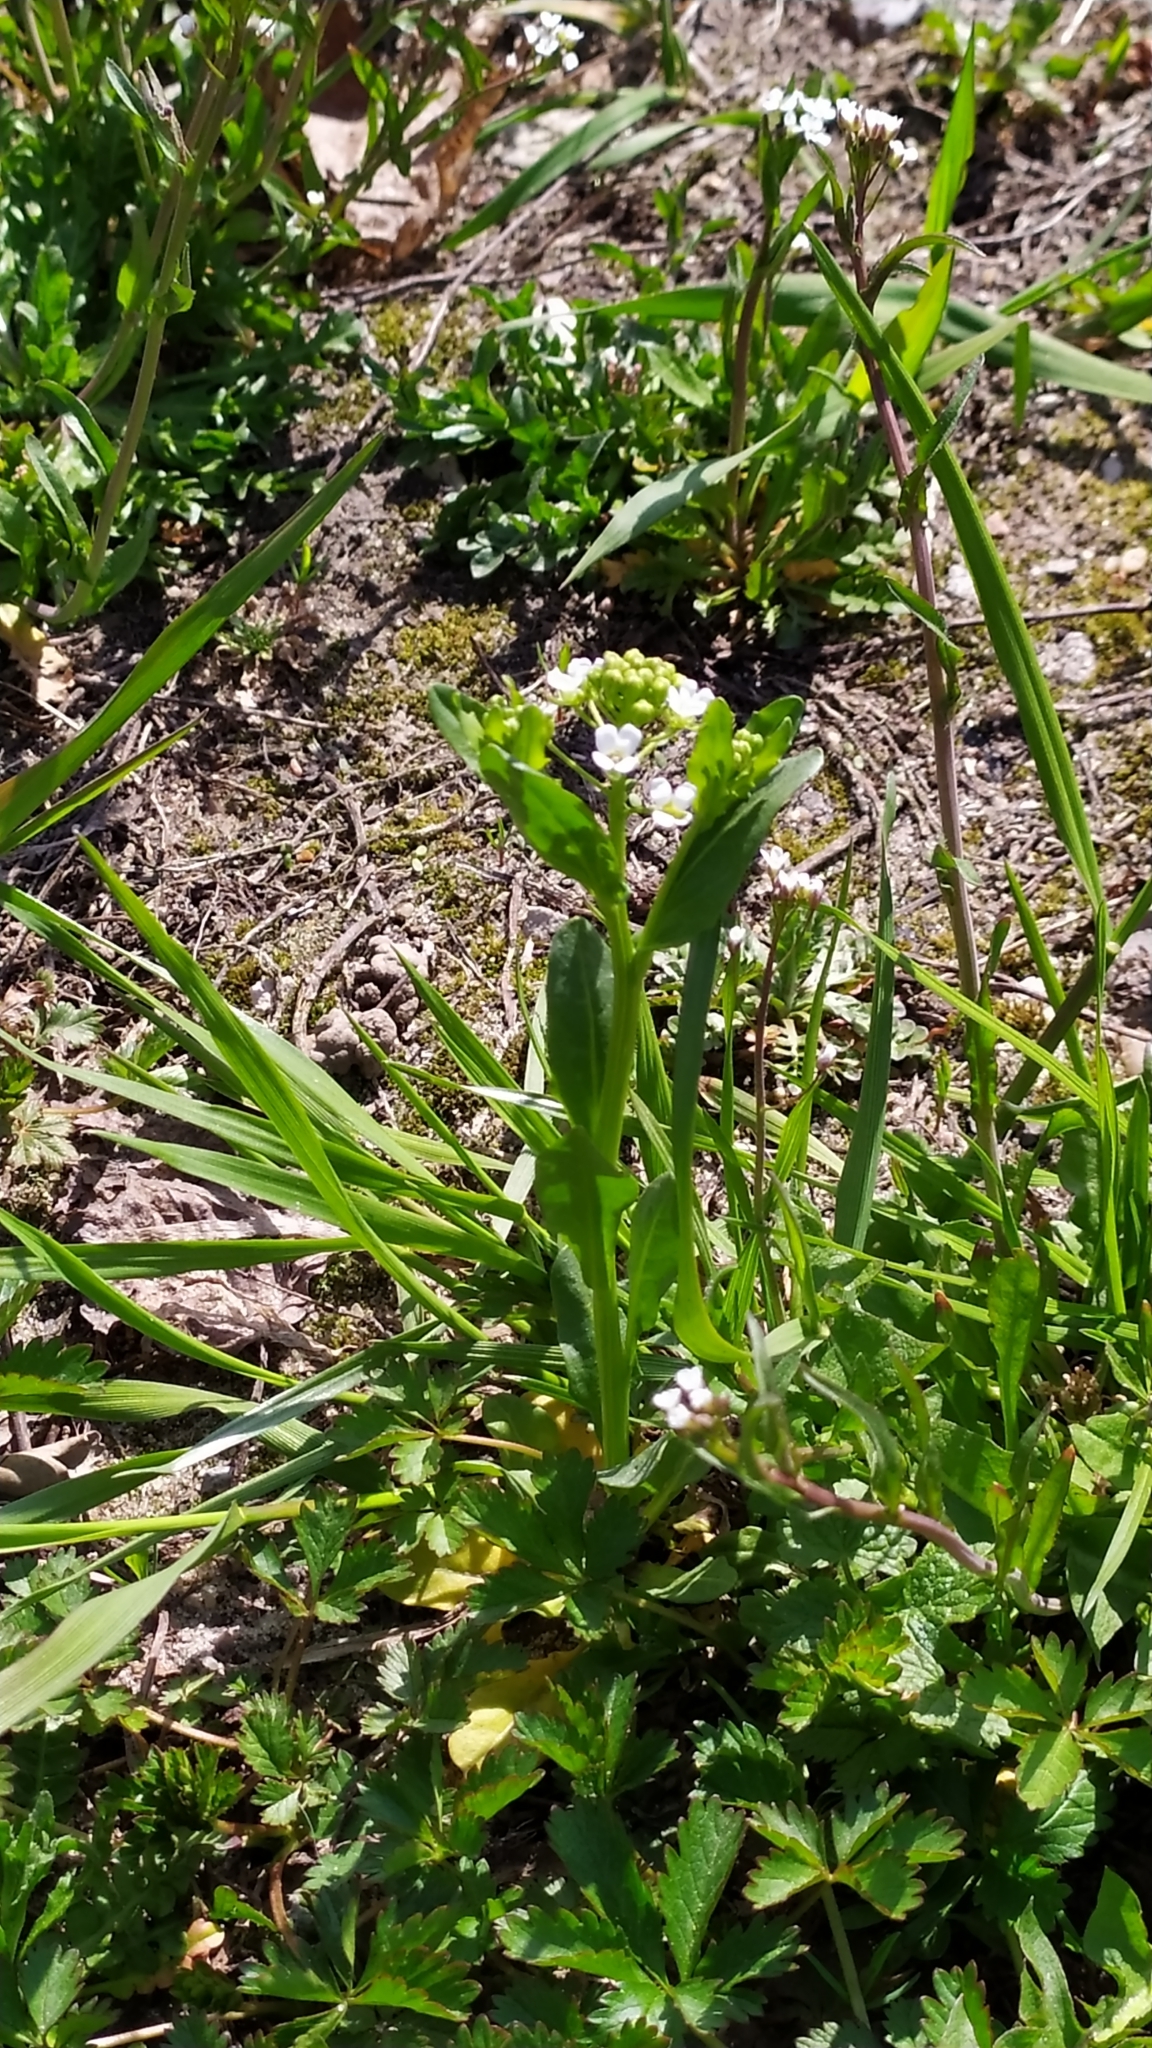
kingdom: Plantae
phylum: Tracheophyta
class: Magnoliopsida
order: Brassicales
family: Brassicaceae
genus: Capsella
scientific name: Capsella bursa-pastoris
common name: Shepherd's purse
